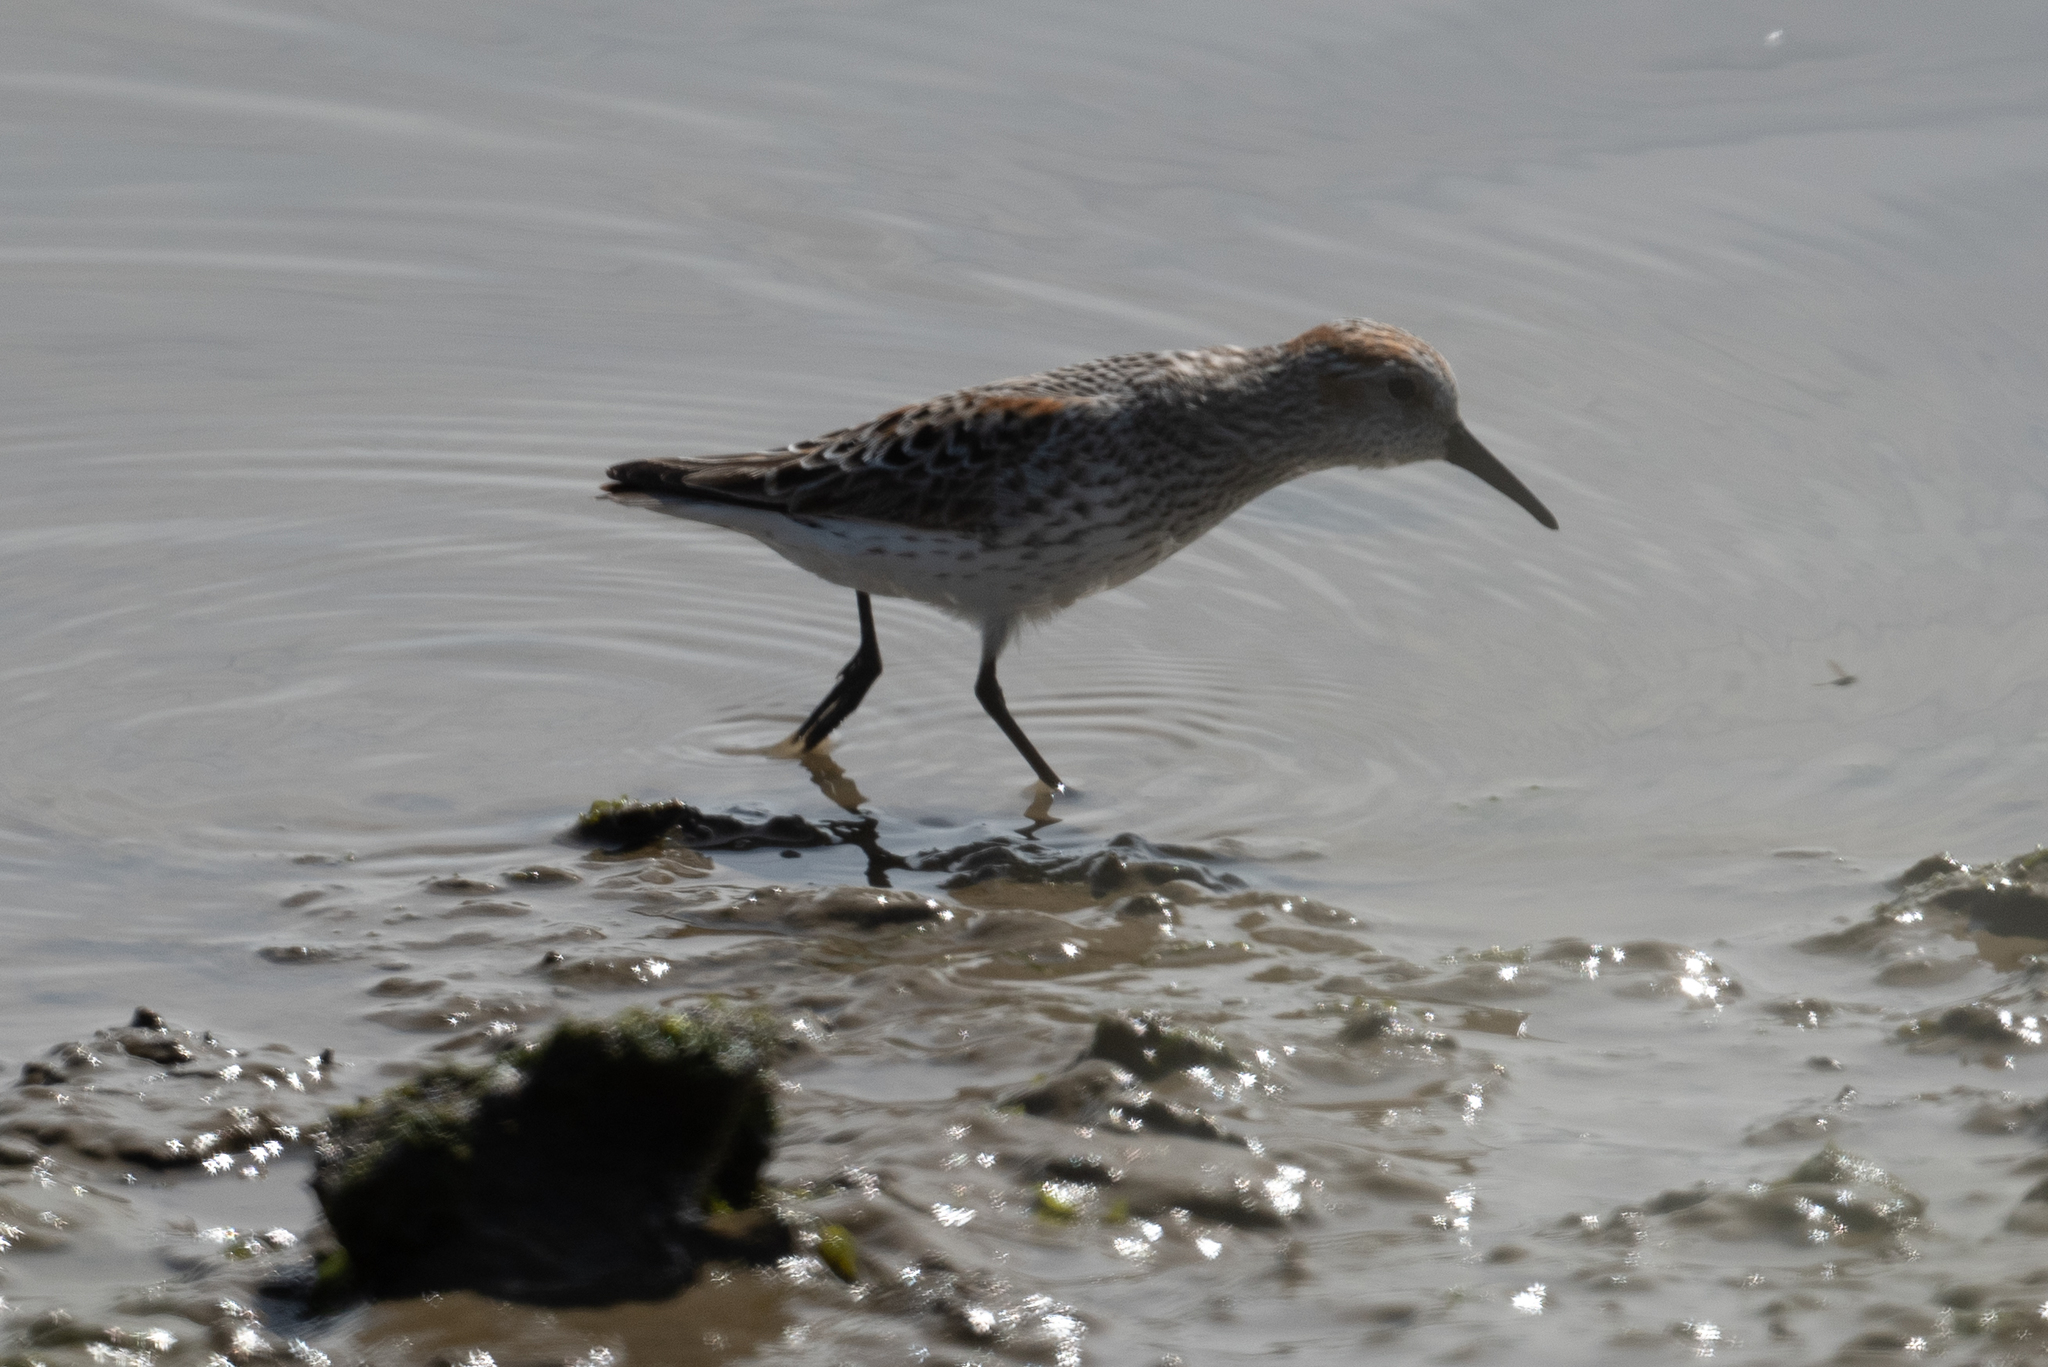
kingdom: Animalia
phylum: Chordata
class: Aves
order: Charadriiformes
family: Scolopacidae
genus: Calidris
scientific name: Calidris mauri
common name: Western sandpiper
